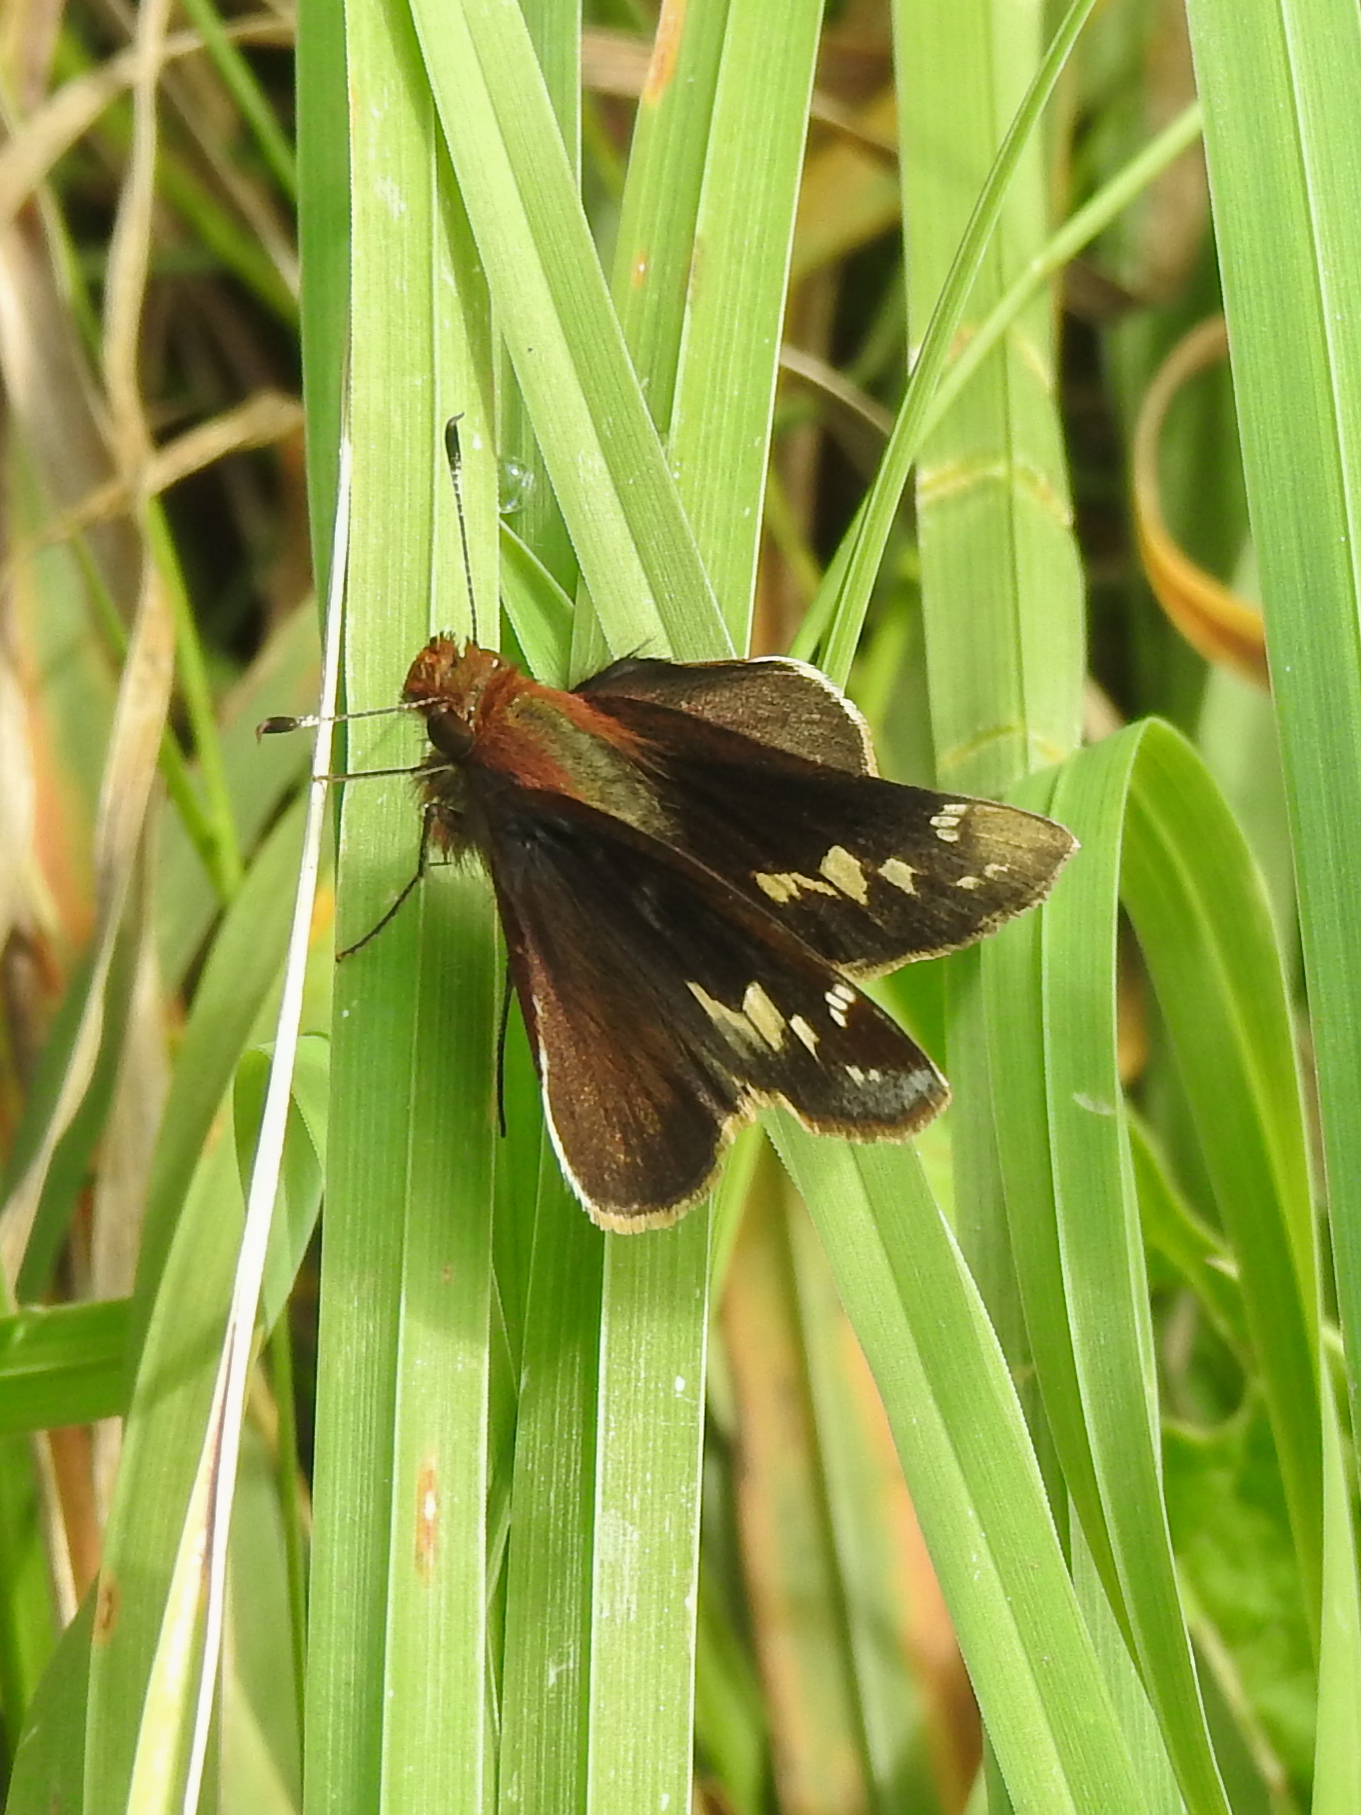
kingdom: Animalia
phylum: Arthropoda
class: Insecta
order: Lepidoptera
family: Hesperiidae
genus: Lon
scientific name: Lon zabulon
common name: Zabulon skipper
